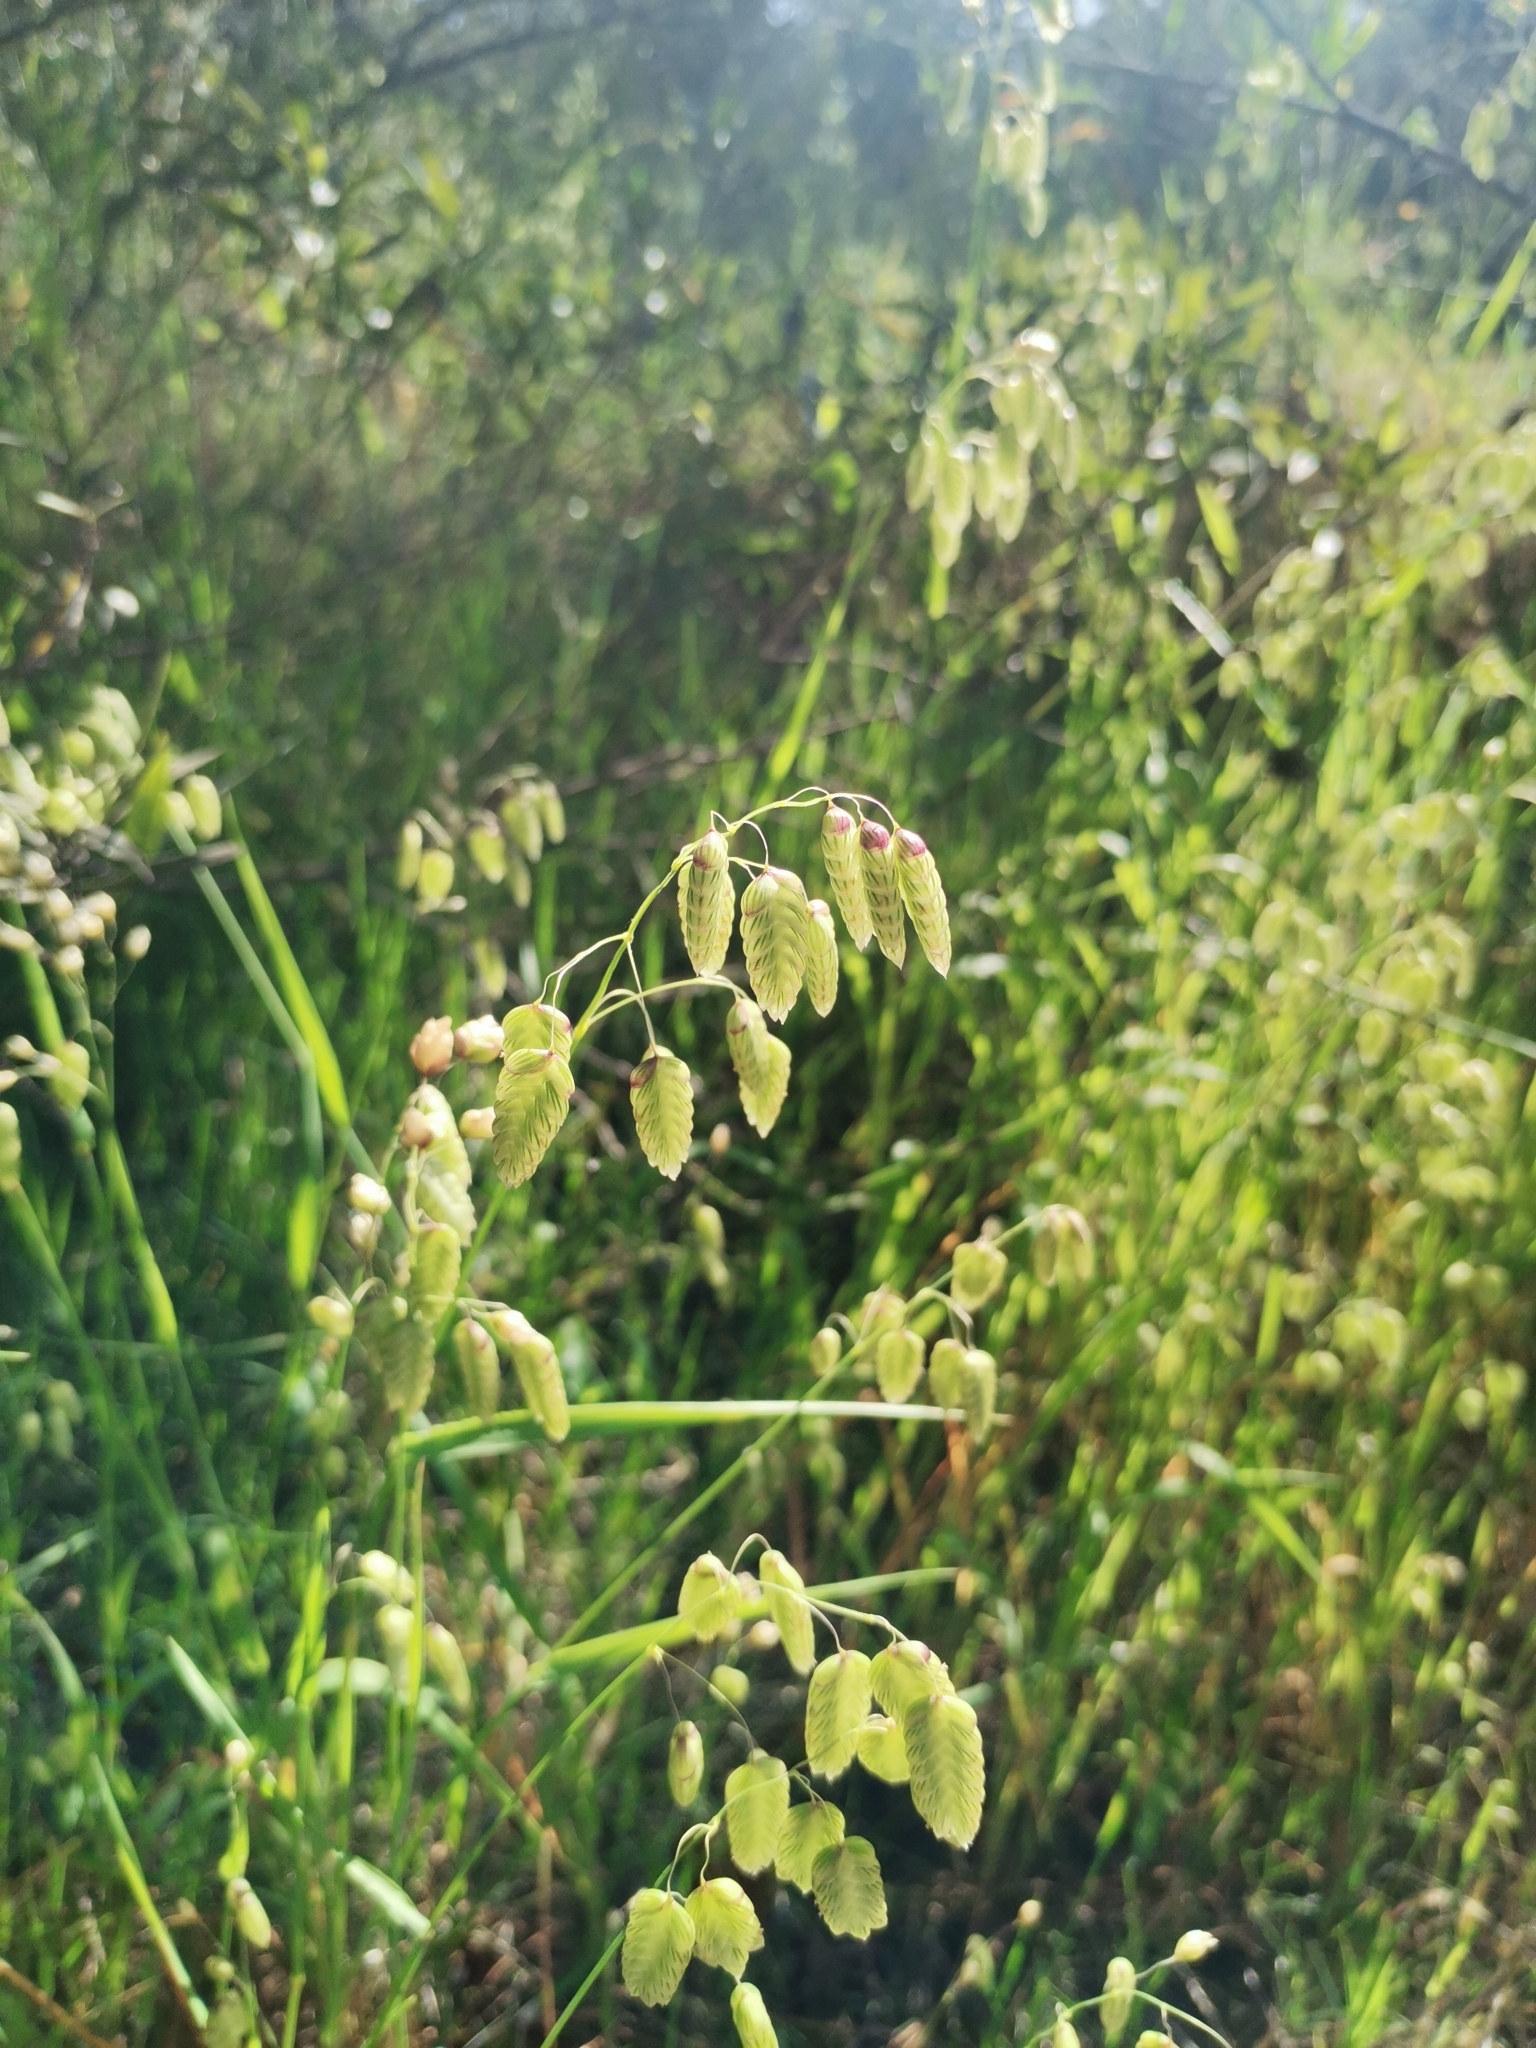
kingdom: Plantae
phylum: Tracheophyta
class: Liliopsida
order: Poales
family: Poaceae
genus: Briza
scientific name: Briza maxima
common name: Big quakinggrass
